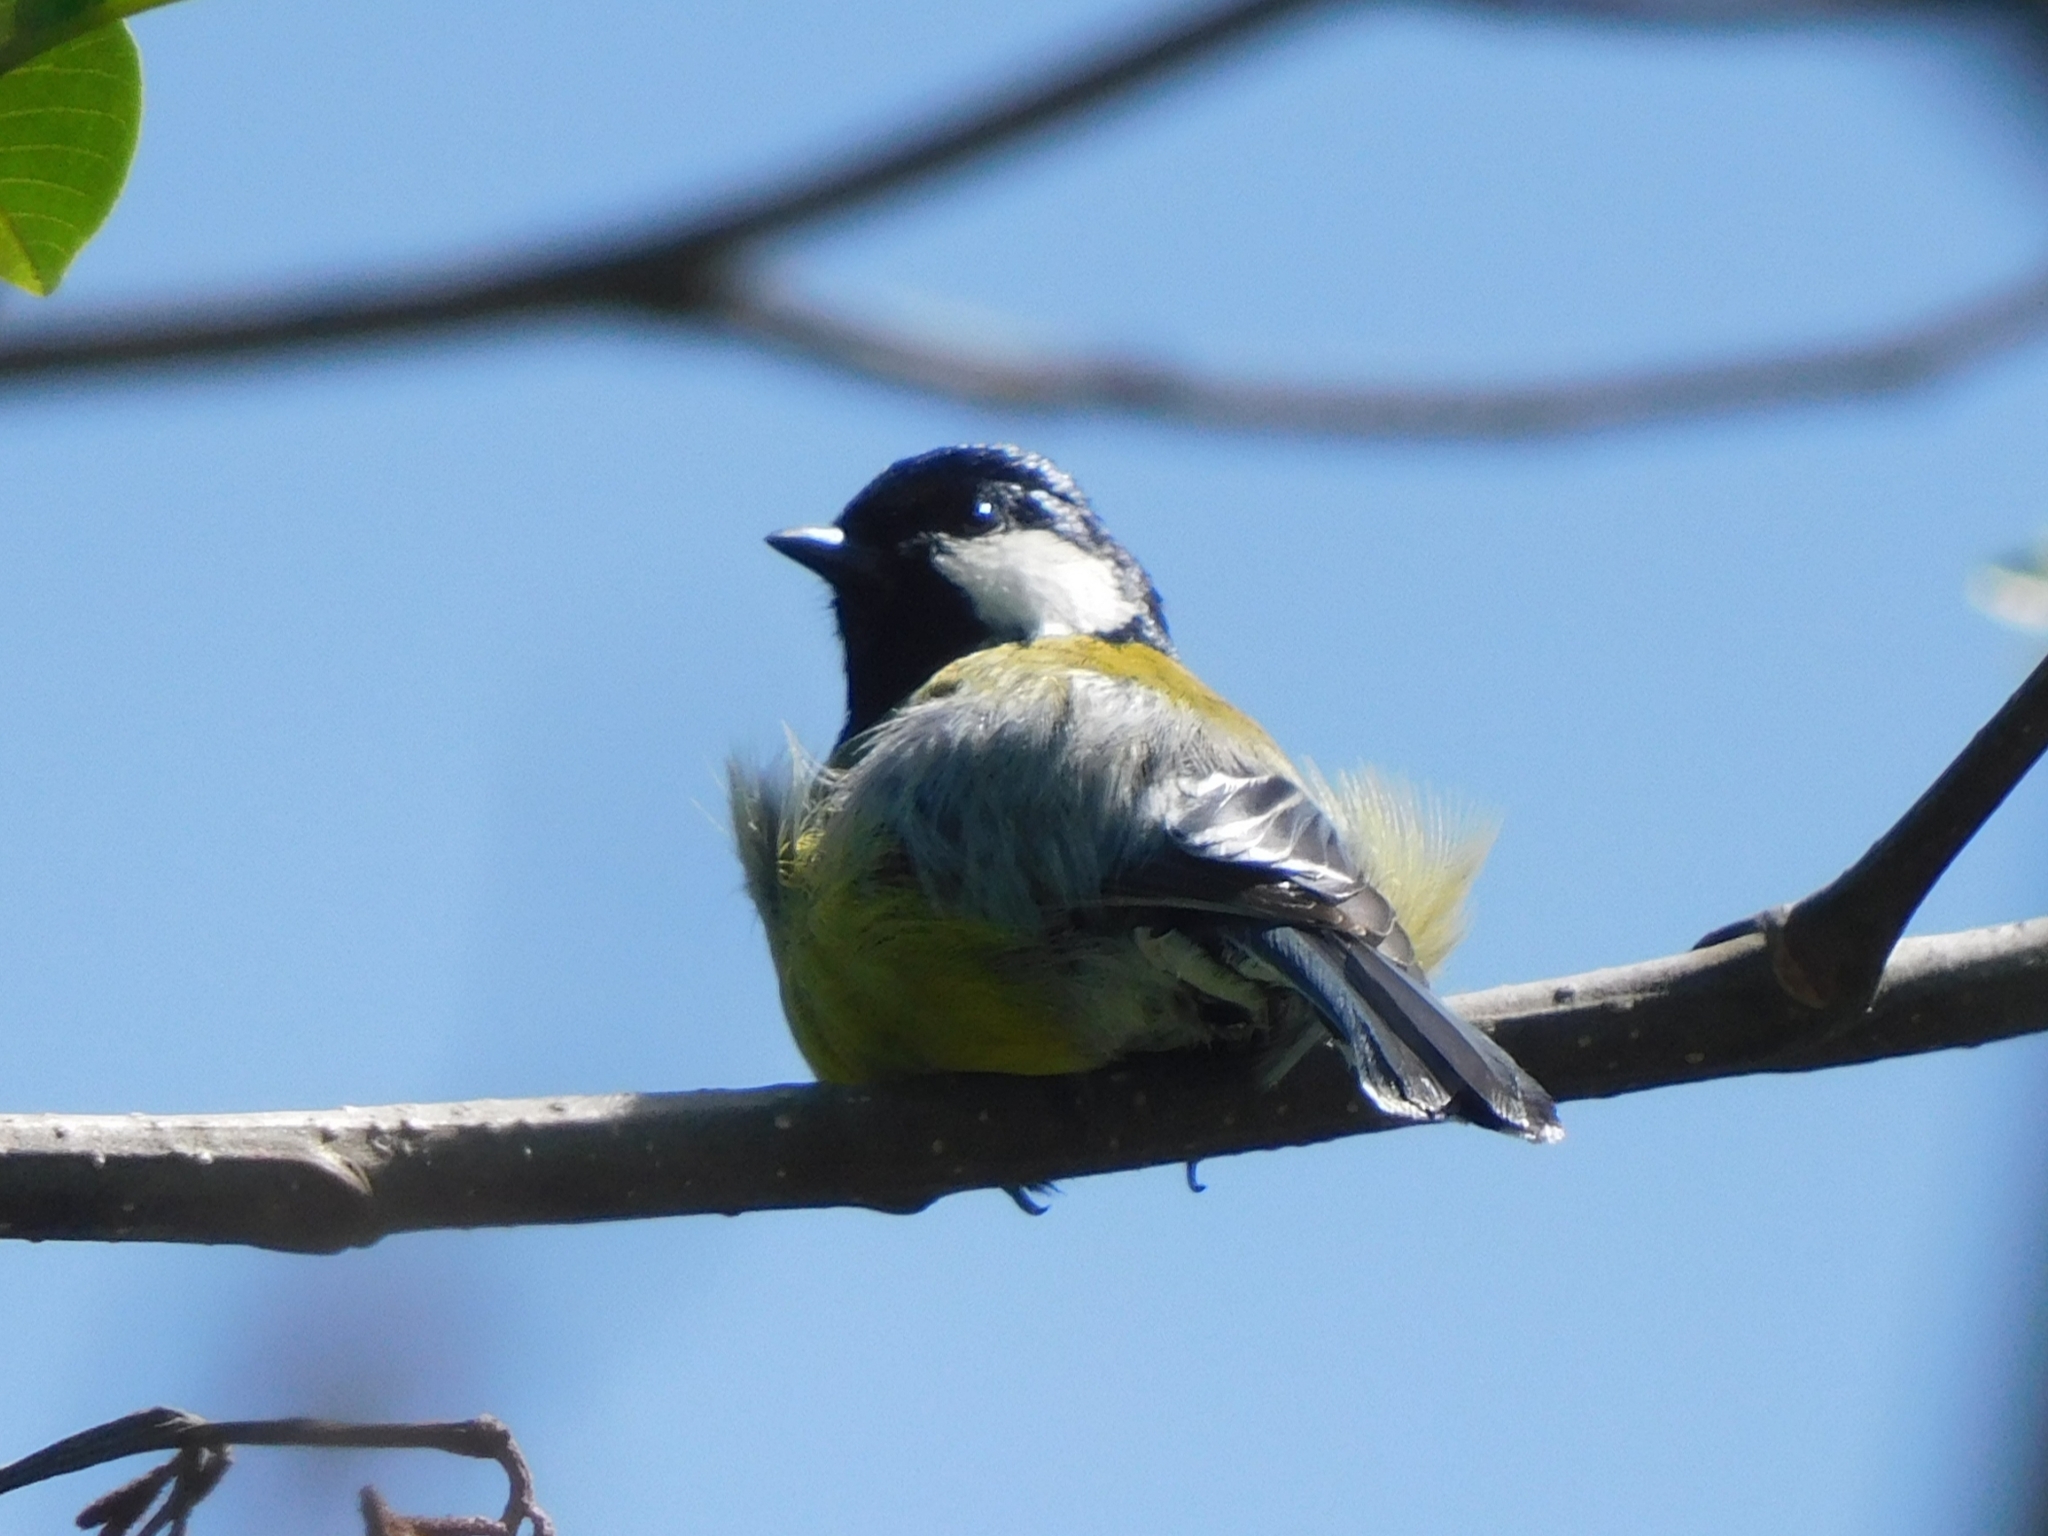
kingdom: Animalia
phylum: Chordata
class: Aves
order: Passeriformes
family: Paridae
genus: Parus
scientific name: Parus monticolus
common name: Green-backed tit
